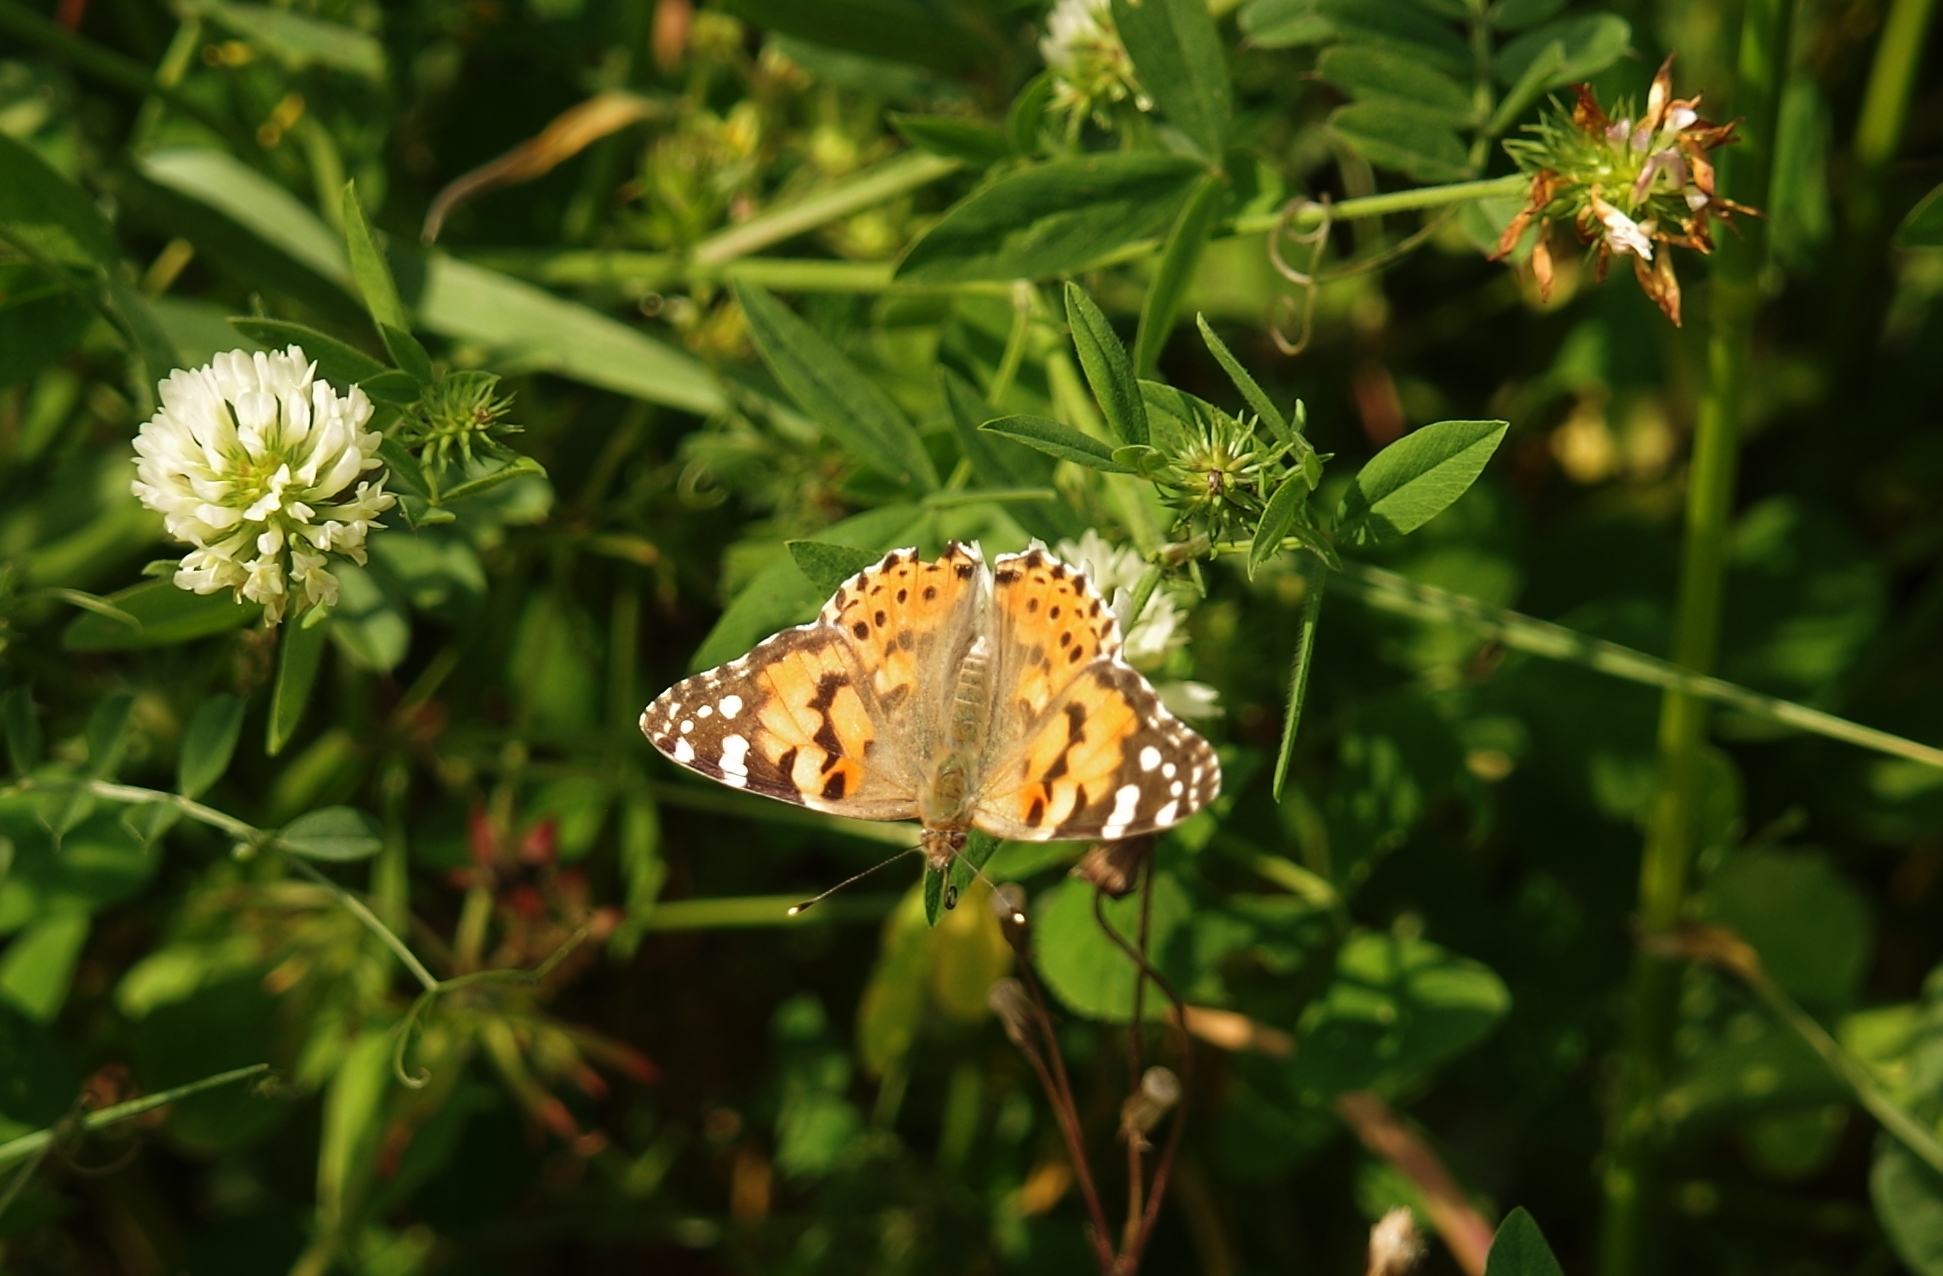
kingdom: Animalia
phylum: Arthropoda
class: Insecta
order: Lepidoptera
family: Nymphalidae
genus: Vanessa
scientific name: Vanessa cardui
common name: Painted lady
